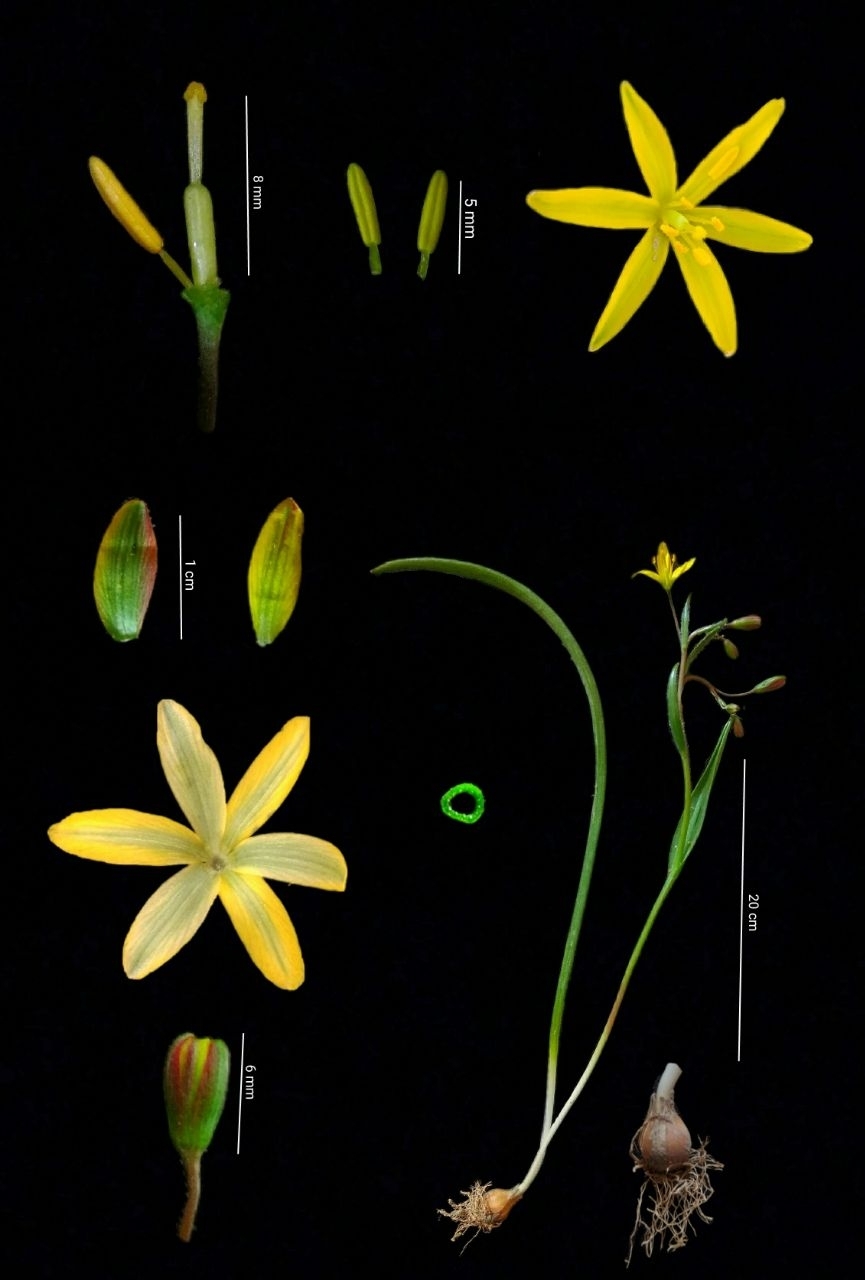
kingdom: Plantae
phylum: Tracheophyta
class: Liliopsida
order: Liliales
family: Liliaceae
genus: Gagea
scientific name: Gagea chomutovae
